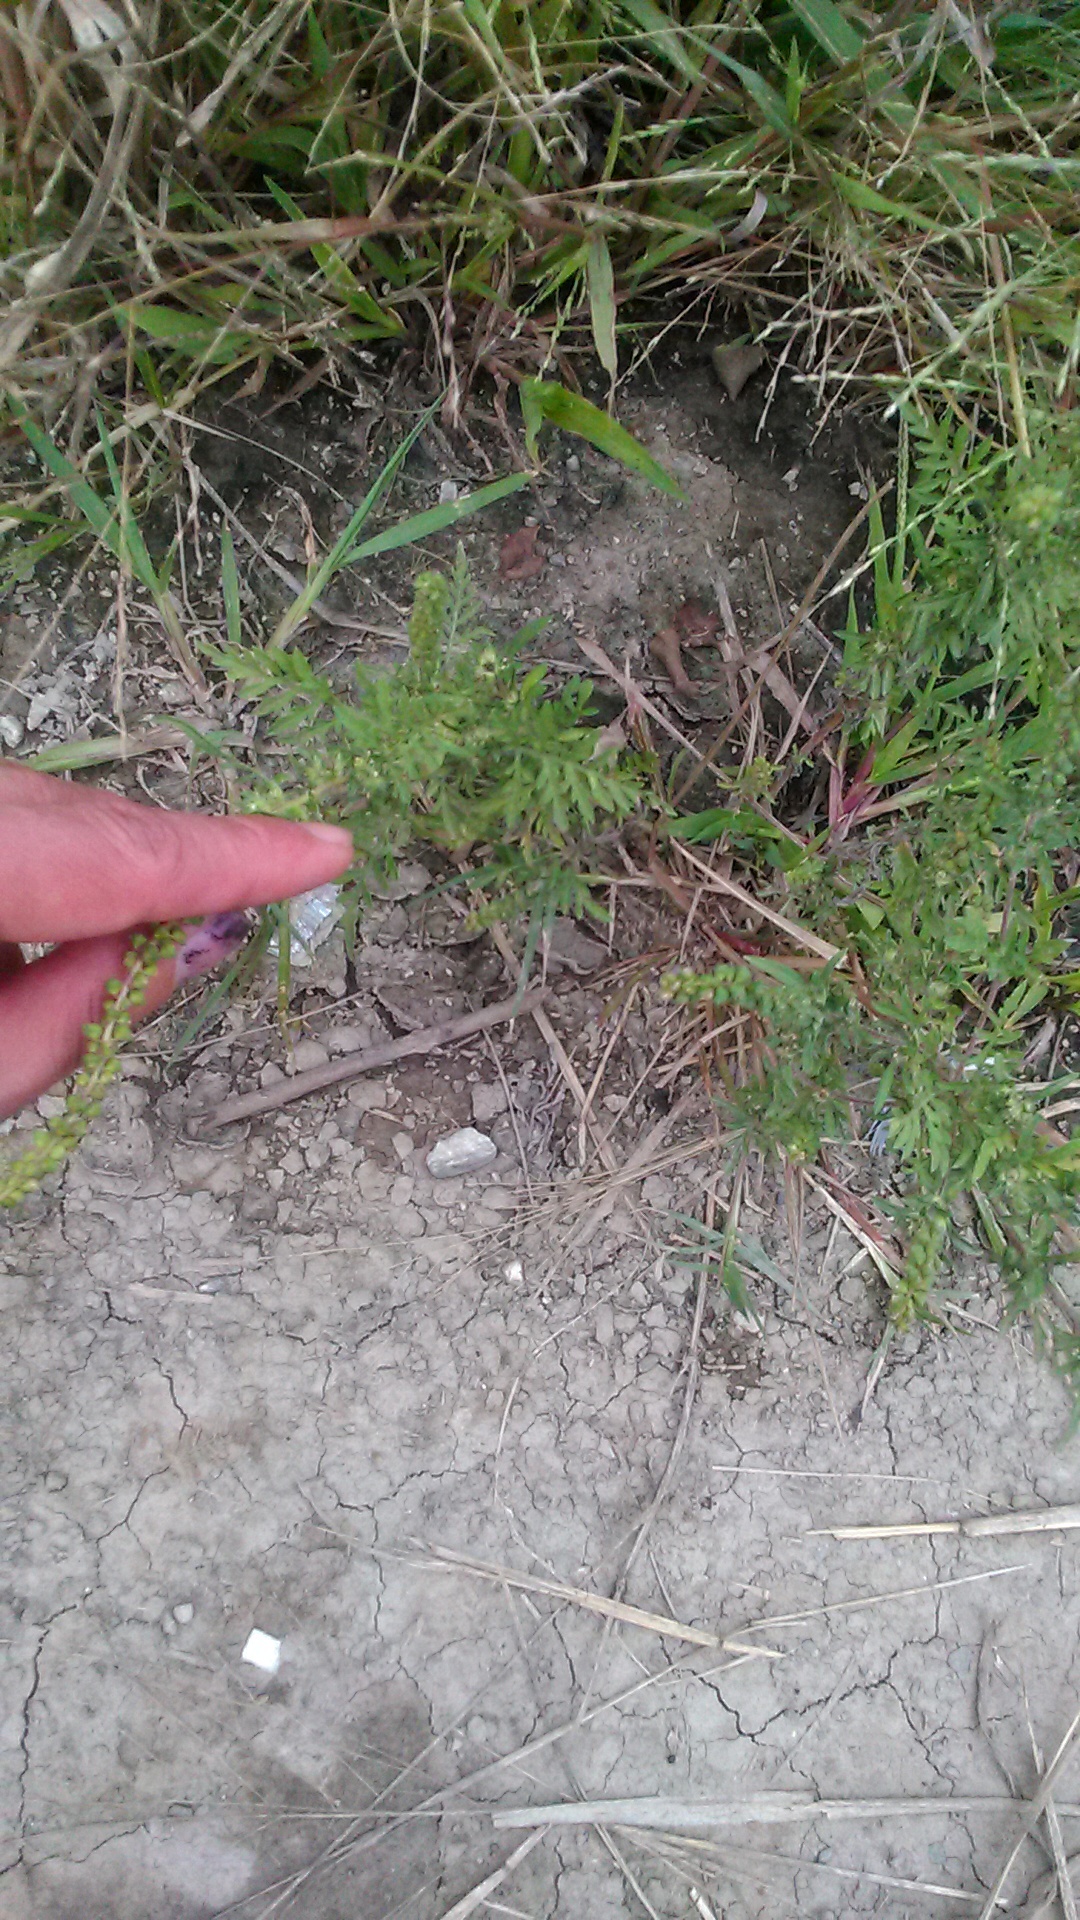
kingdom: Plantae
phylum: Tracheophyta
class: Magnoliopsida
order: Asterales
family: Asteraceae
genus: Ambrosia
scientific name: Ambrosia artemisiifolia
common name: Annual ragweed
